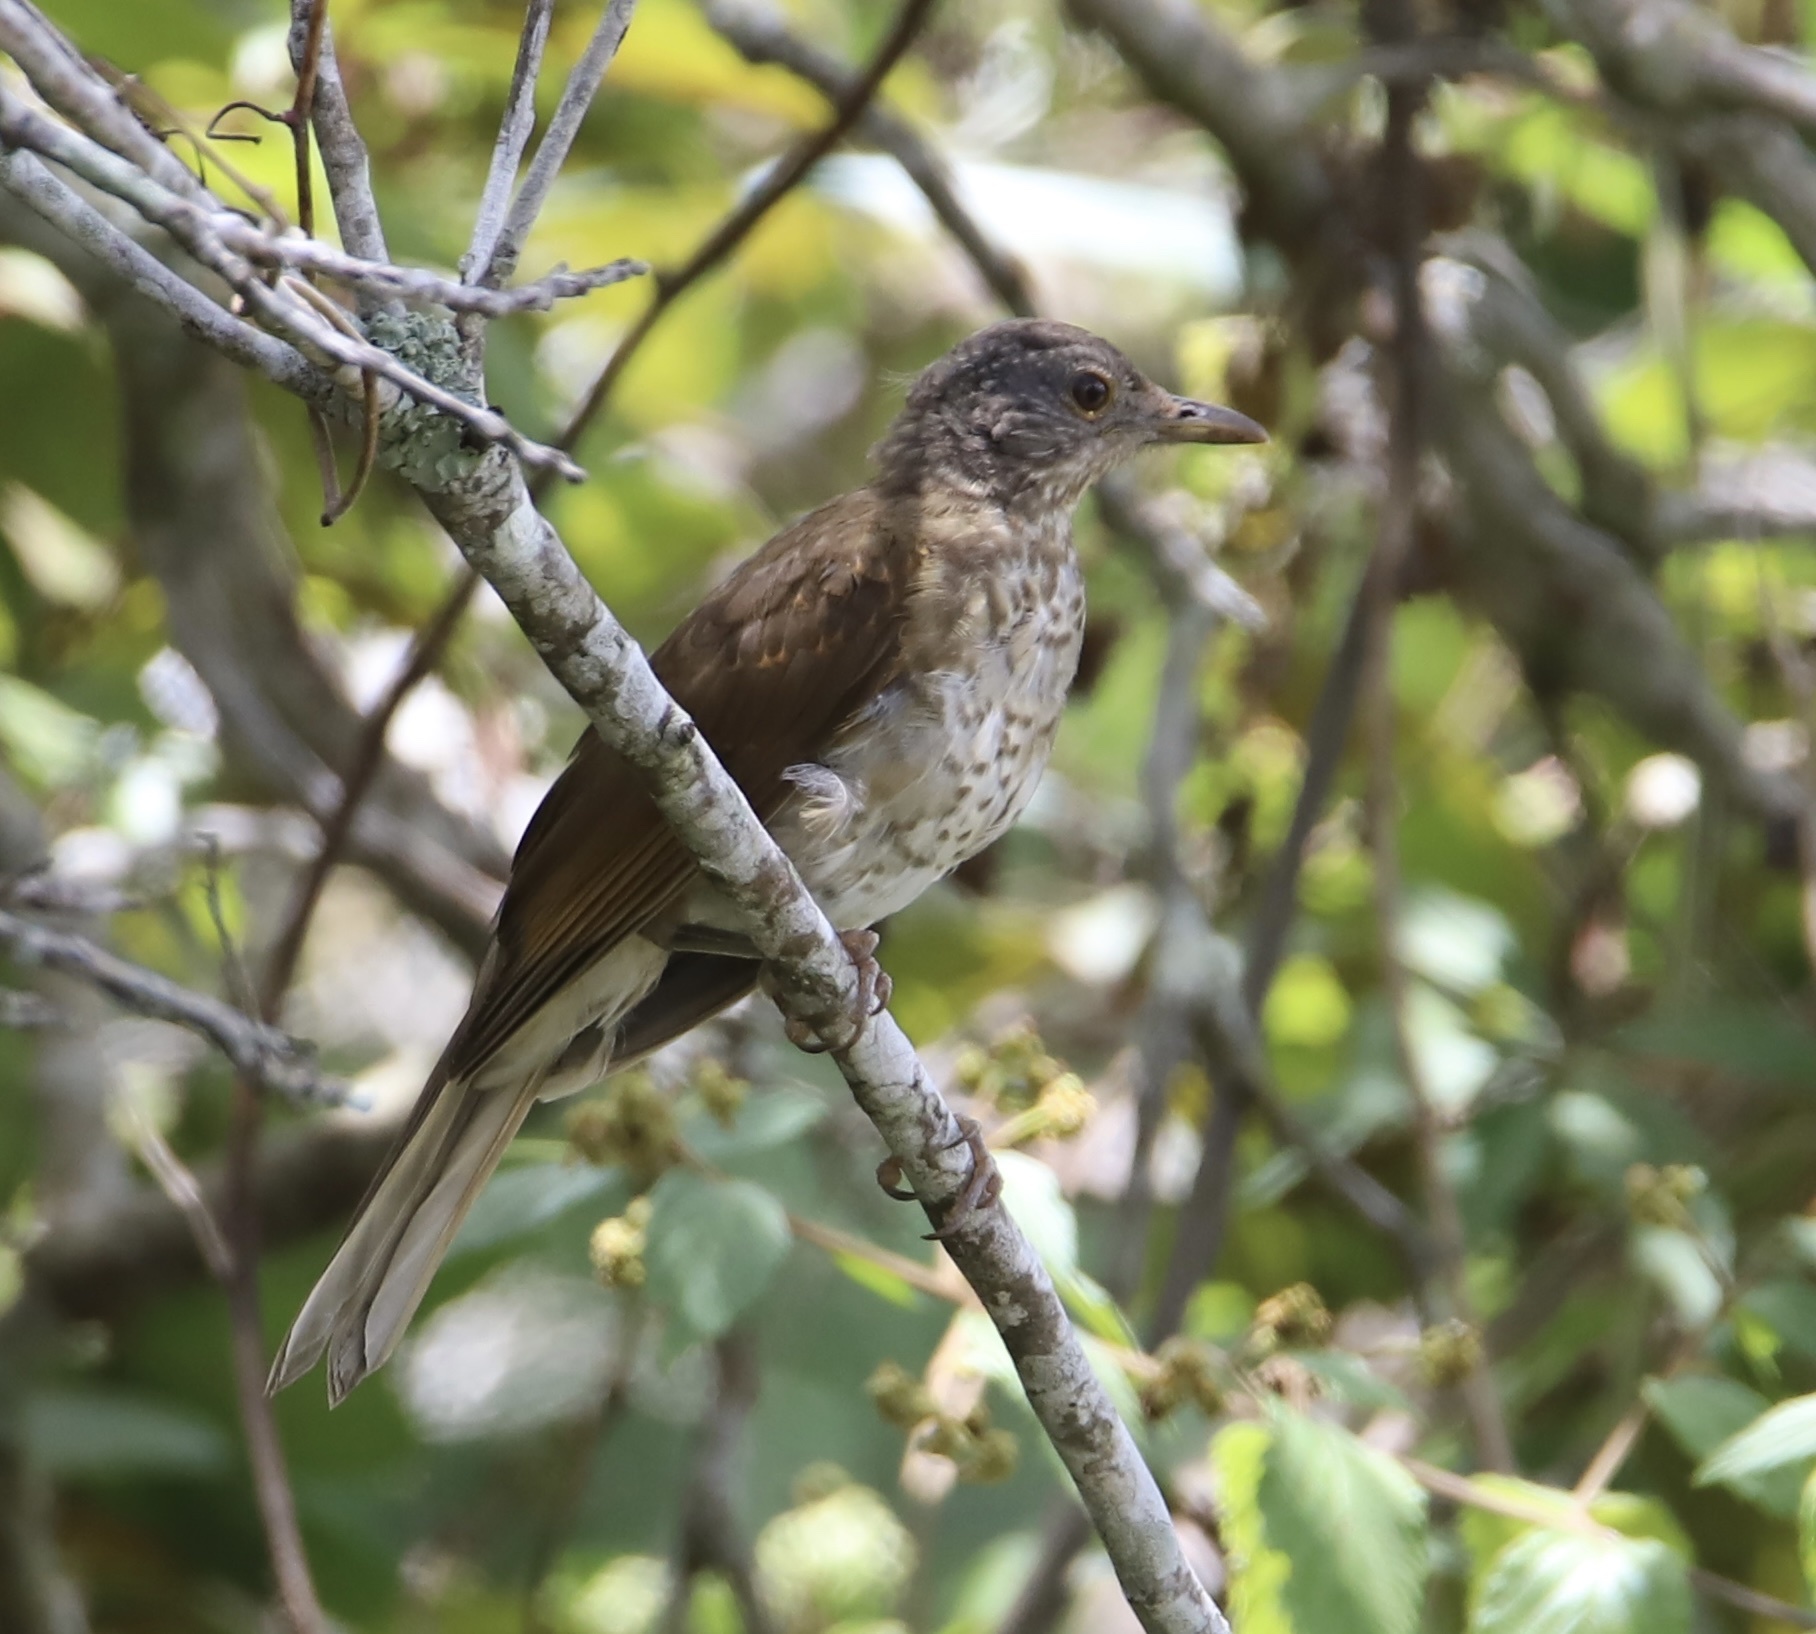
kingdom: Animalia
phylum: Chordata
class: Aves
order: Passeriformes
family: Turdidae
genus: Turdus
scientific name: Turdus leucomelas
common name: Pale-breasted thrush
